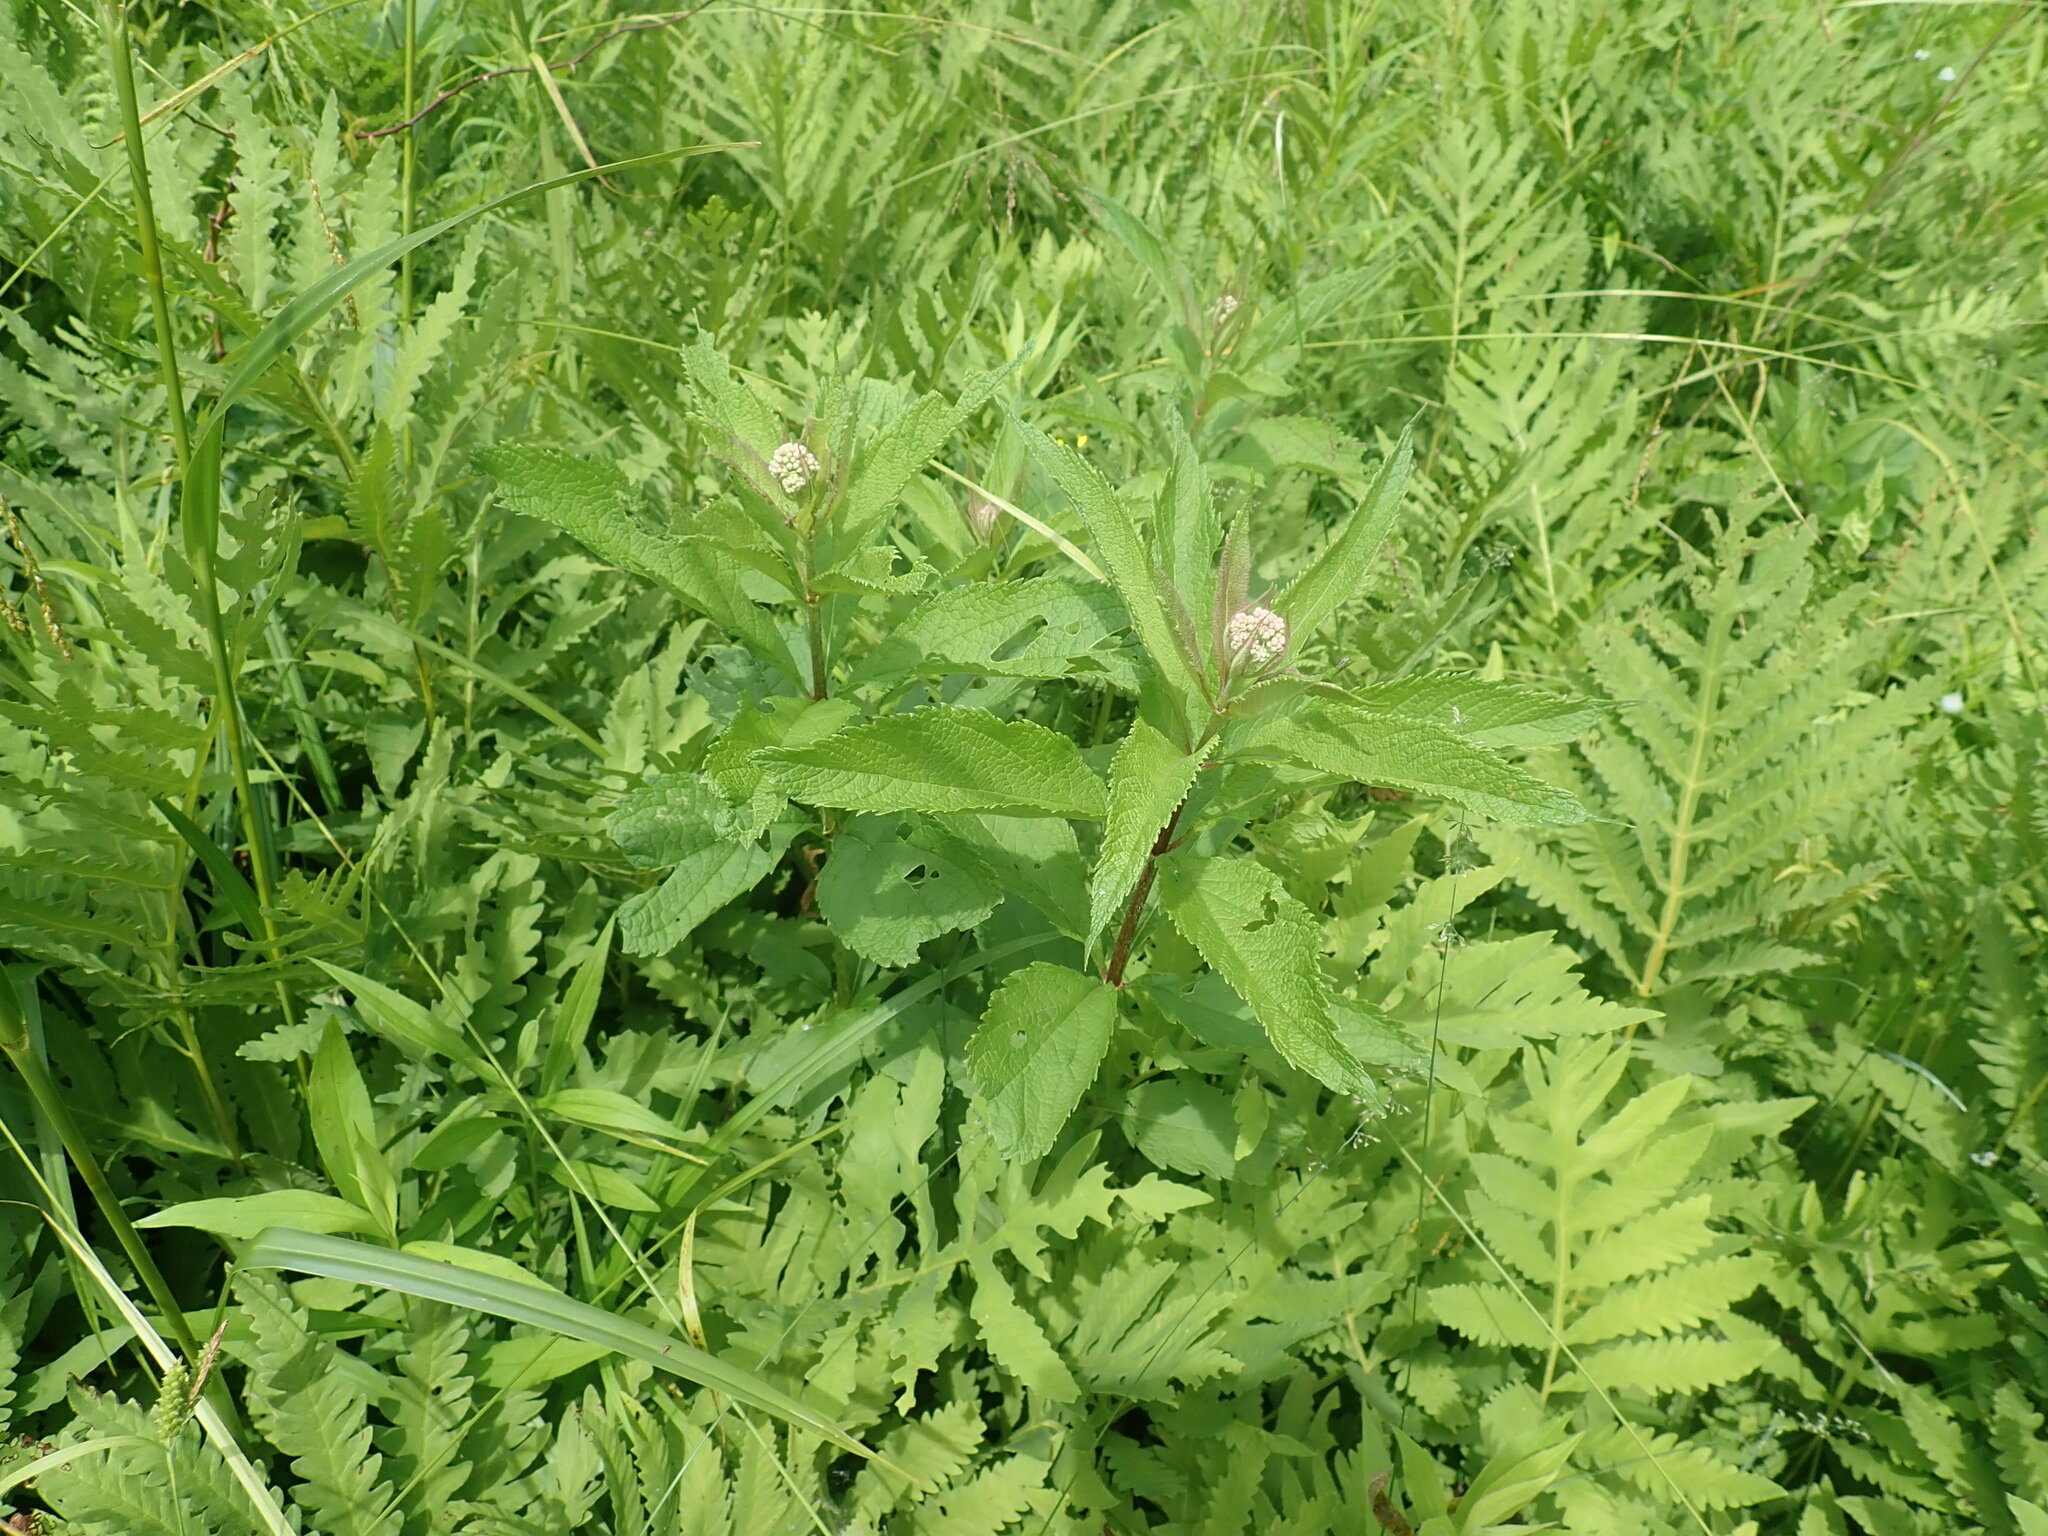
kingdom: Plantae
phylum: Tracheophyta
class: Magnoliopsida
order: Asterales
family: Asteraceae
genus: Eutrochium
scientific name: Eutrochium
